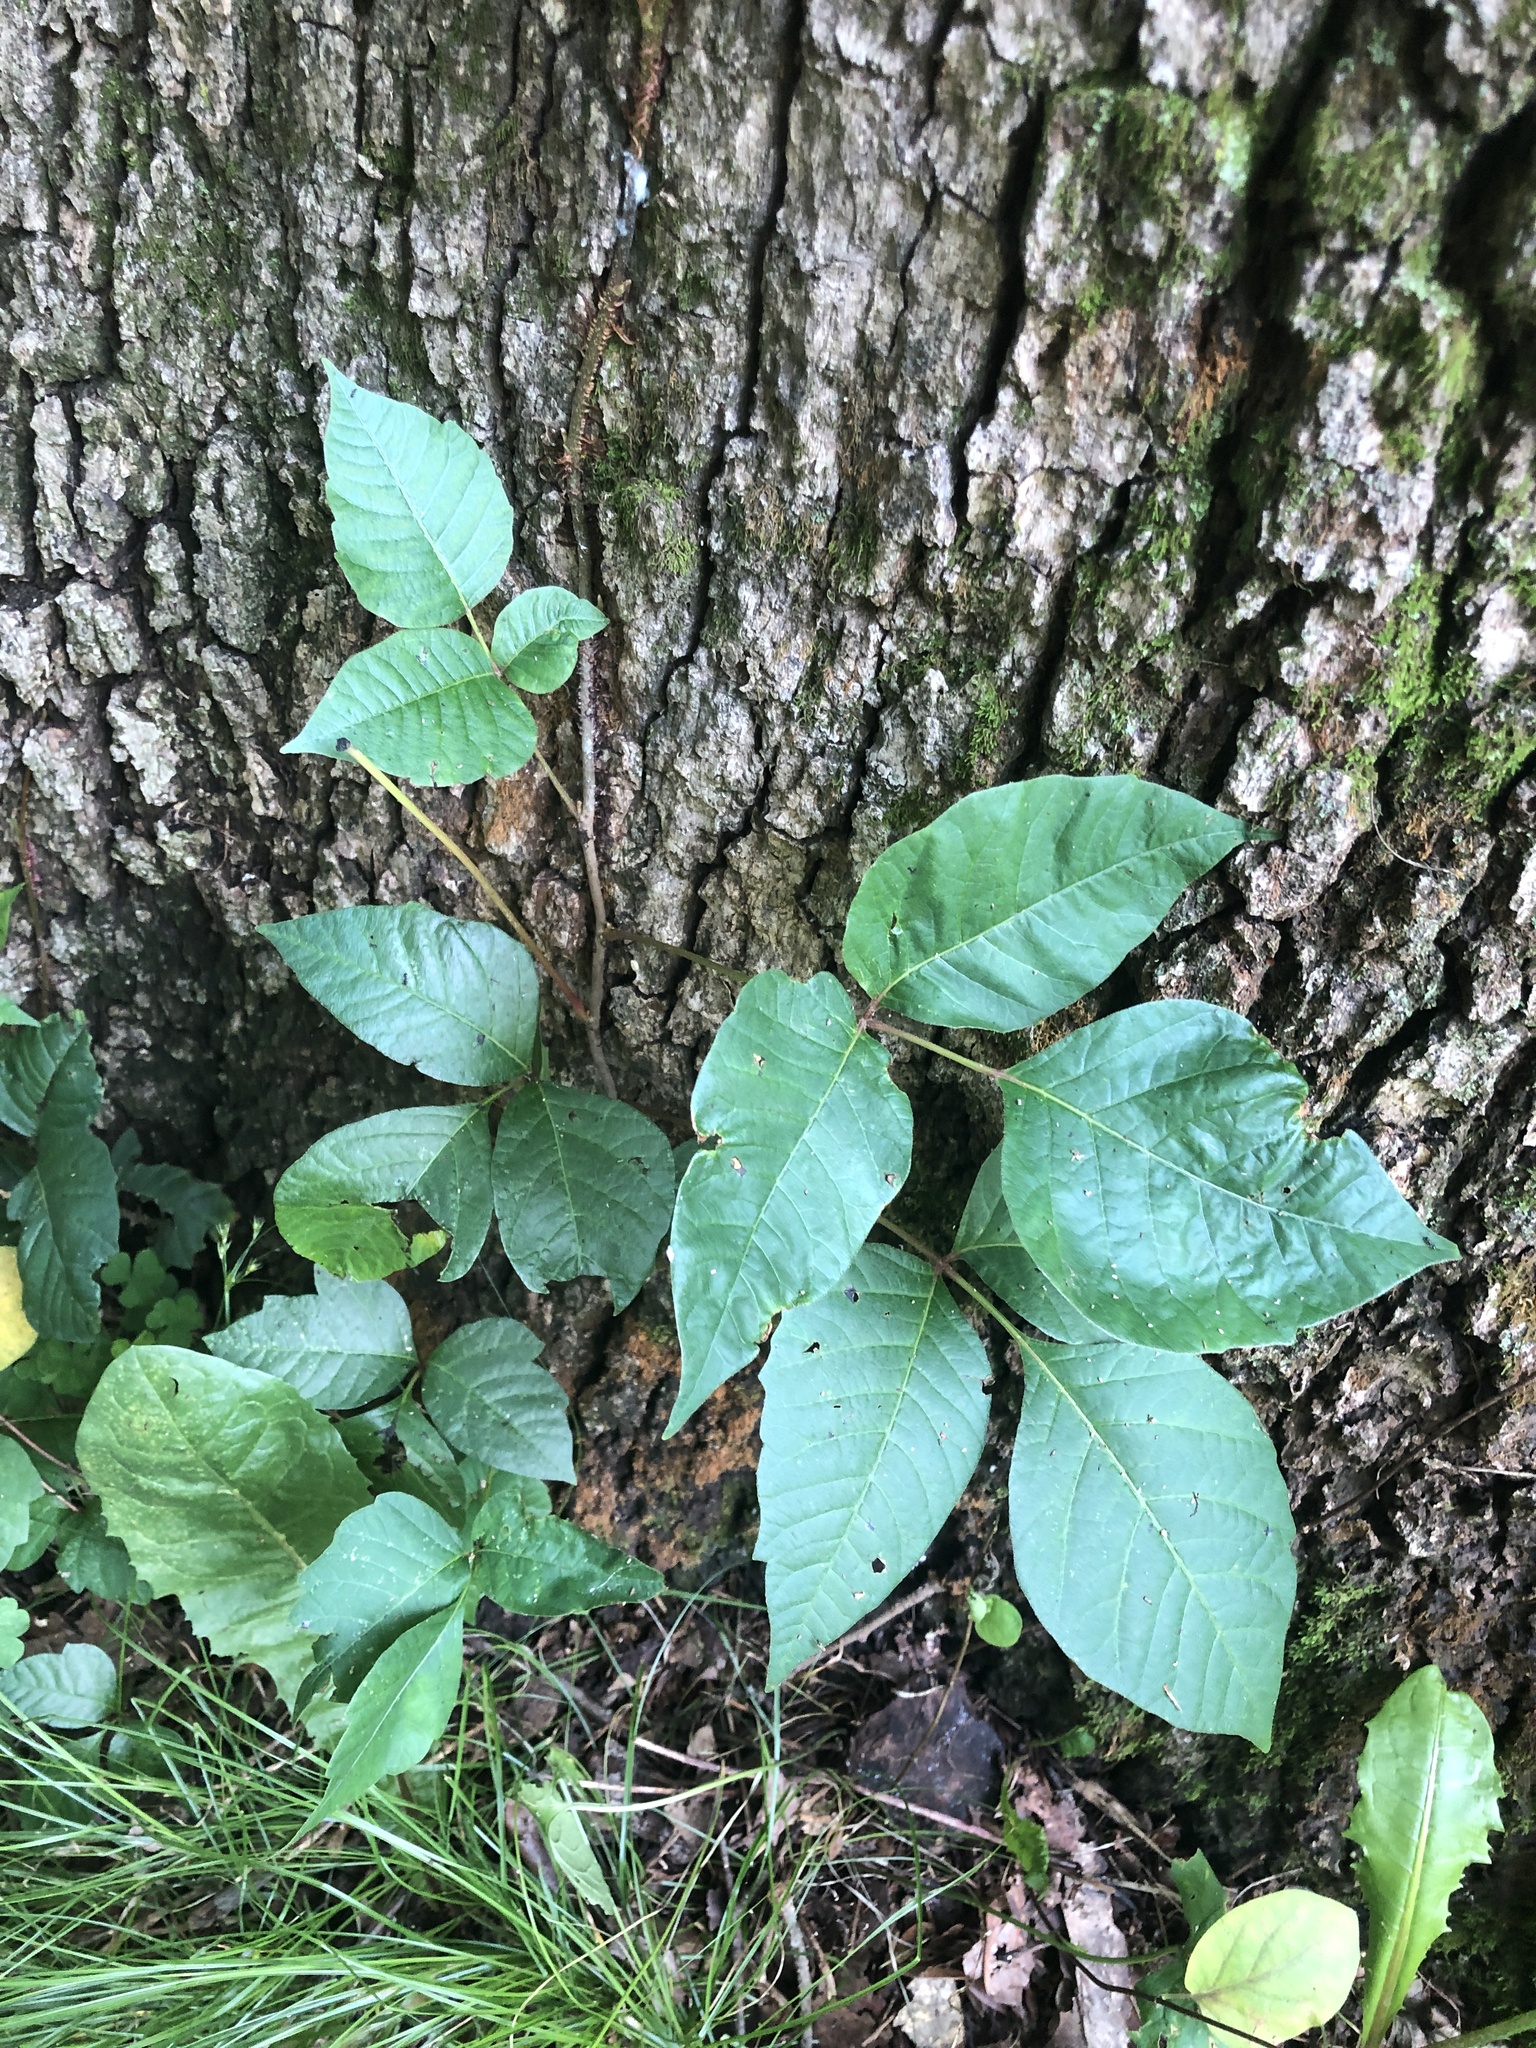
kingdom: Plantae
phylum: Tracheophyta
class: Magnoliopsida
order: Sapindales
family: Anacardiaceae
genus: Toxicodendron
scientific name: Toxicodendron radicans
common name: Poison ivy
